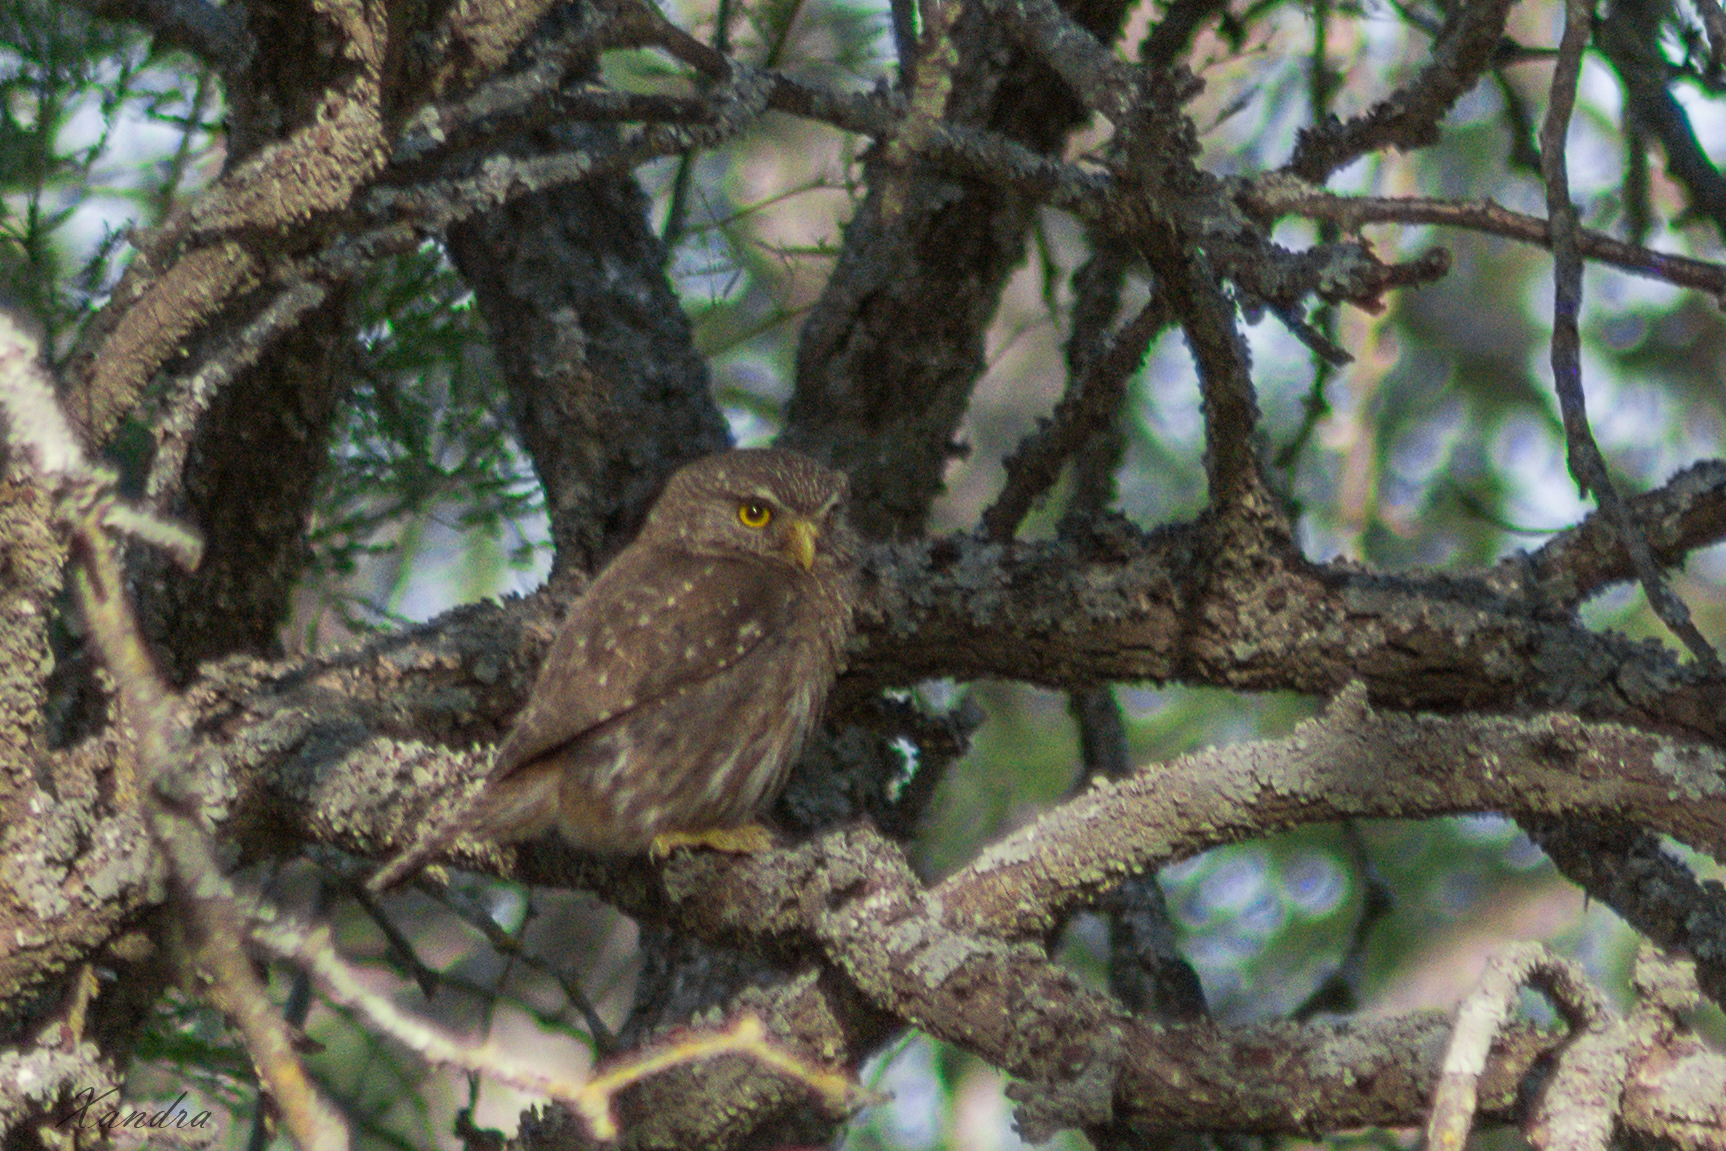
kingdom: Animalia
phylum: Chordata
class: Aves
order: Strigiformes
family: Strigidae
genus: Glaucidium
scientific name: Glaucidium brasilianum
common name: Ferruginous pygmy-owl
